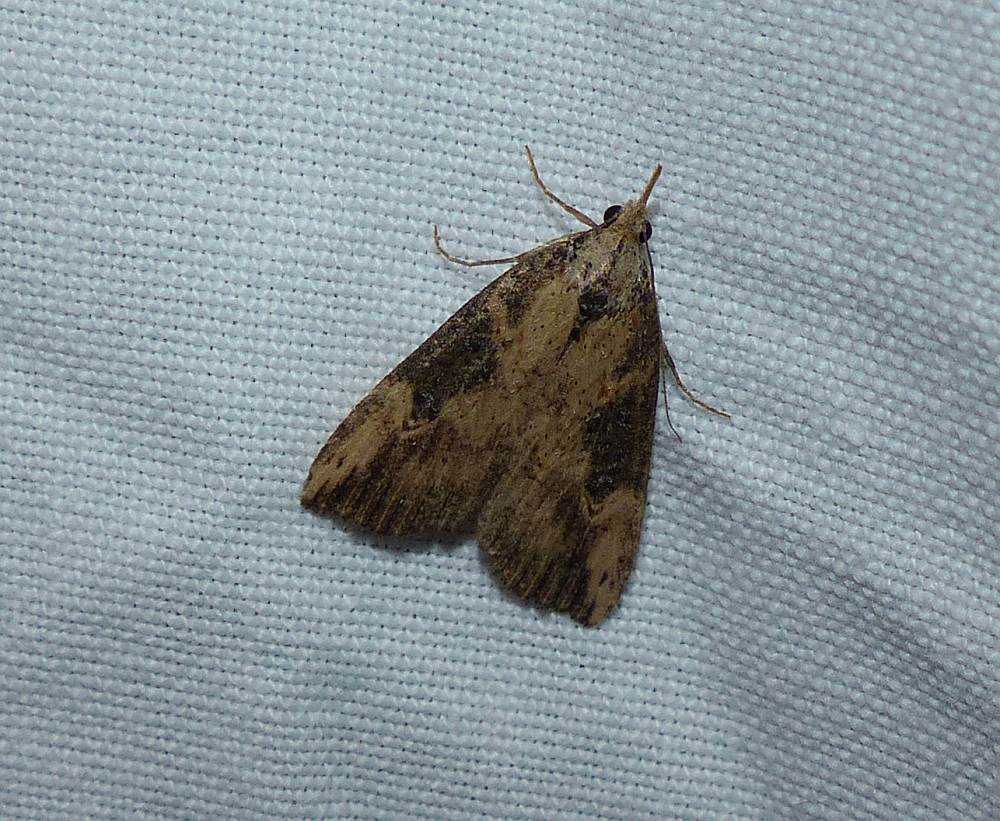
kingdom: Animalia
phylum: Arthropoda
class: Insecta
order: Lepidoptera
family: Erebidae
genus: Hypena
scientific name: Hypena humuli
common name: Hop vine snout
